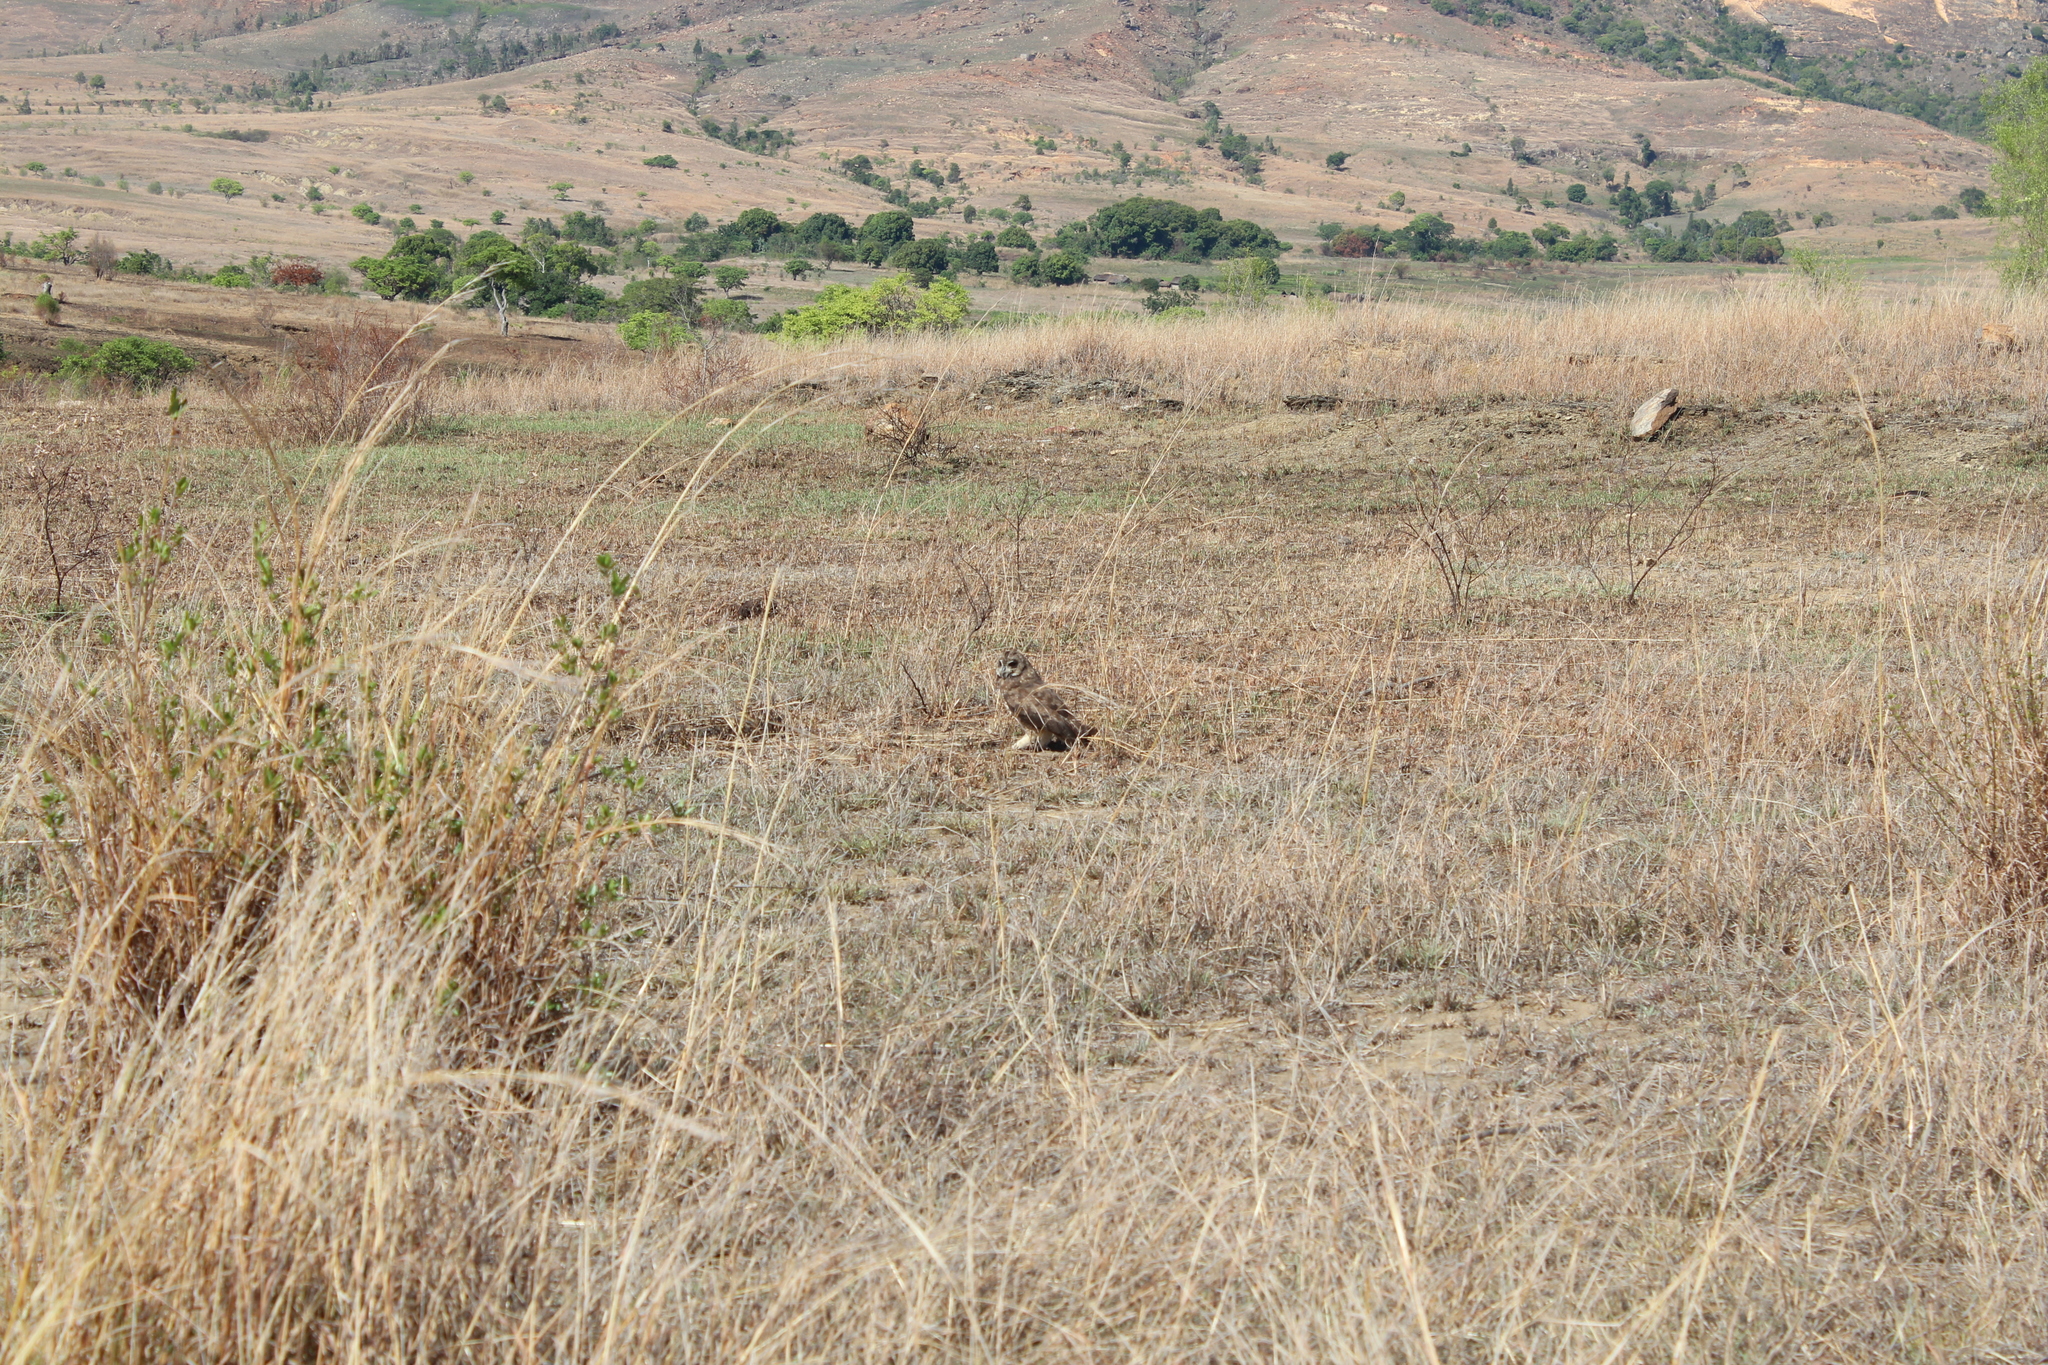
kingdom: Animalia
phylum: Chordata
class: Aves
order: Strigiformes
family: Strigidae
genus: Asio
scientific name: Asio capensis
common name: Marsh owl
